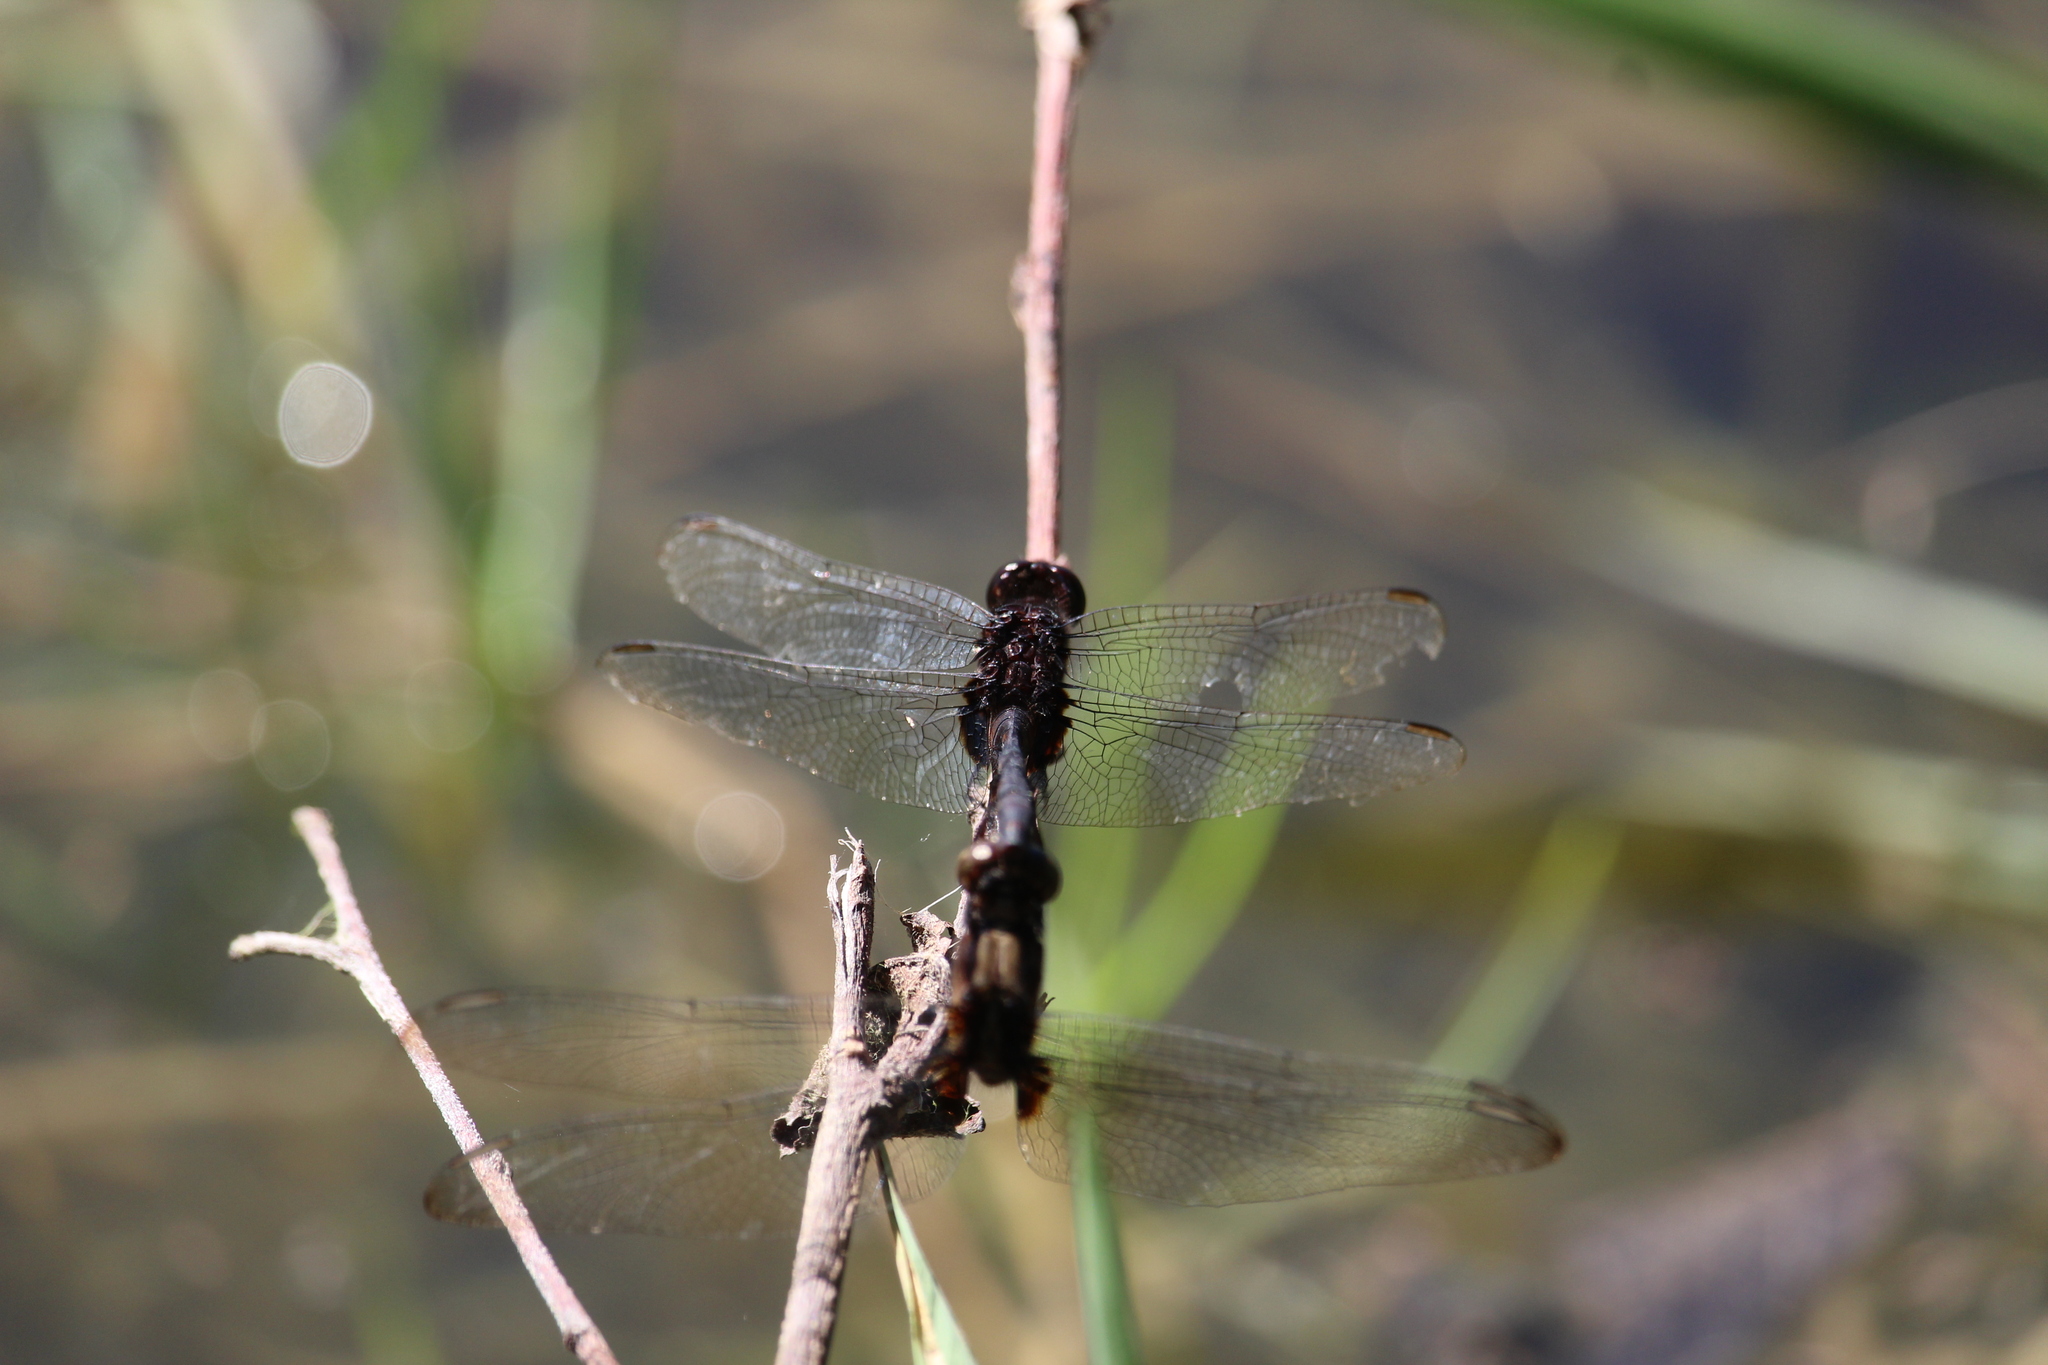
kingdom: Animalia
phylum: Arthropoda
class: Insecta
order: Odonata
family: Libellulidae
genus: Erythemis
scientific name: Erythemis plebeja
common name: Pin-tailed pondhawk
